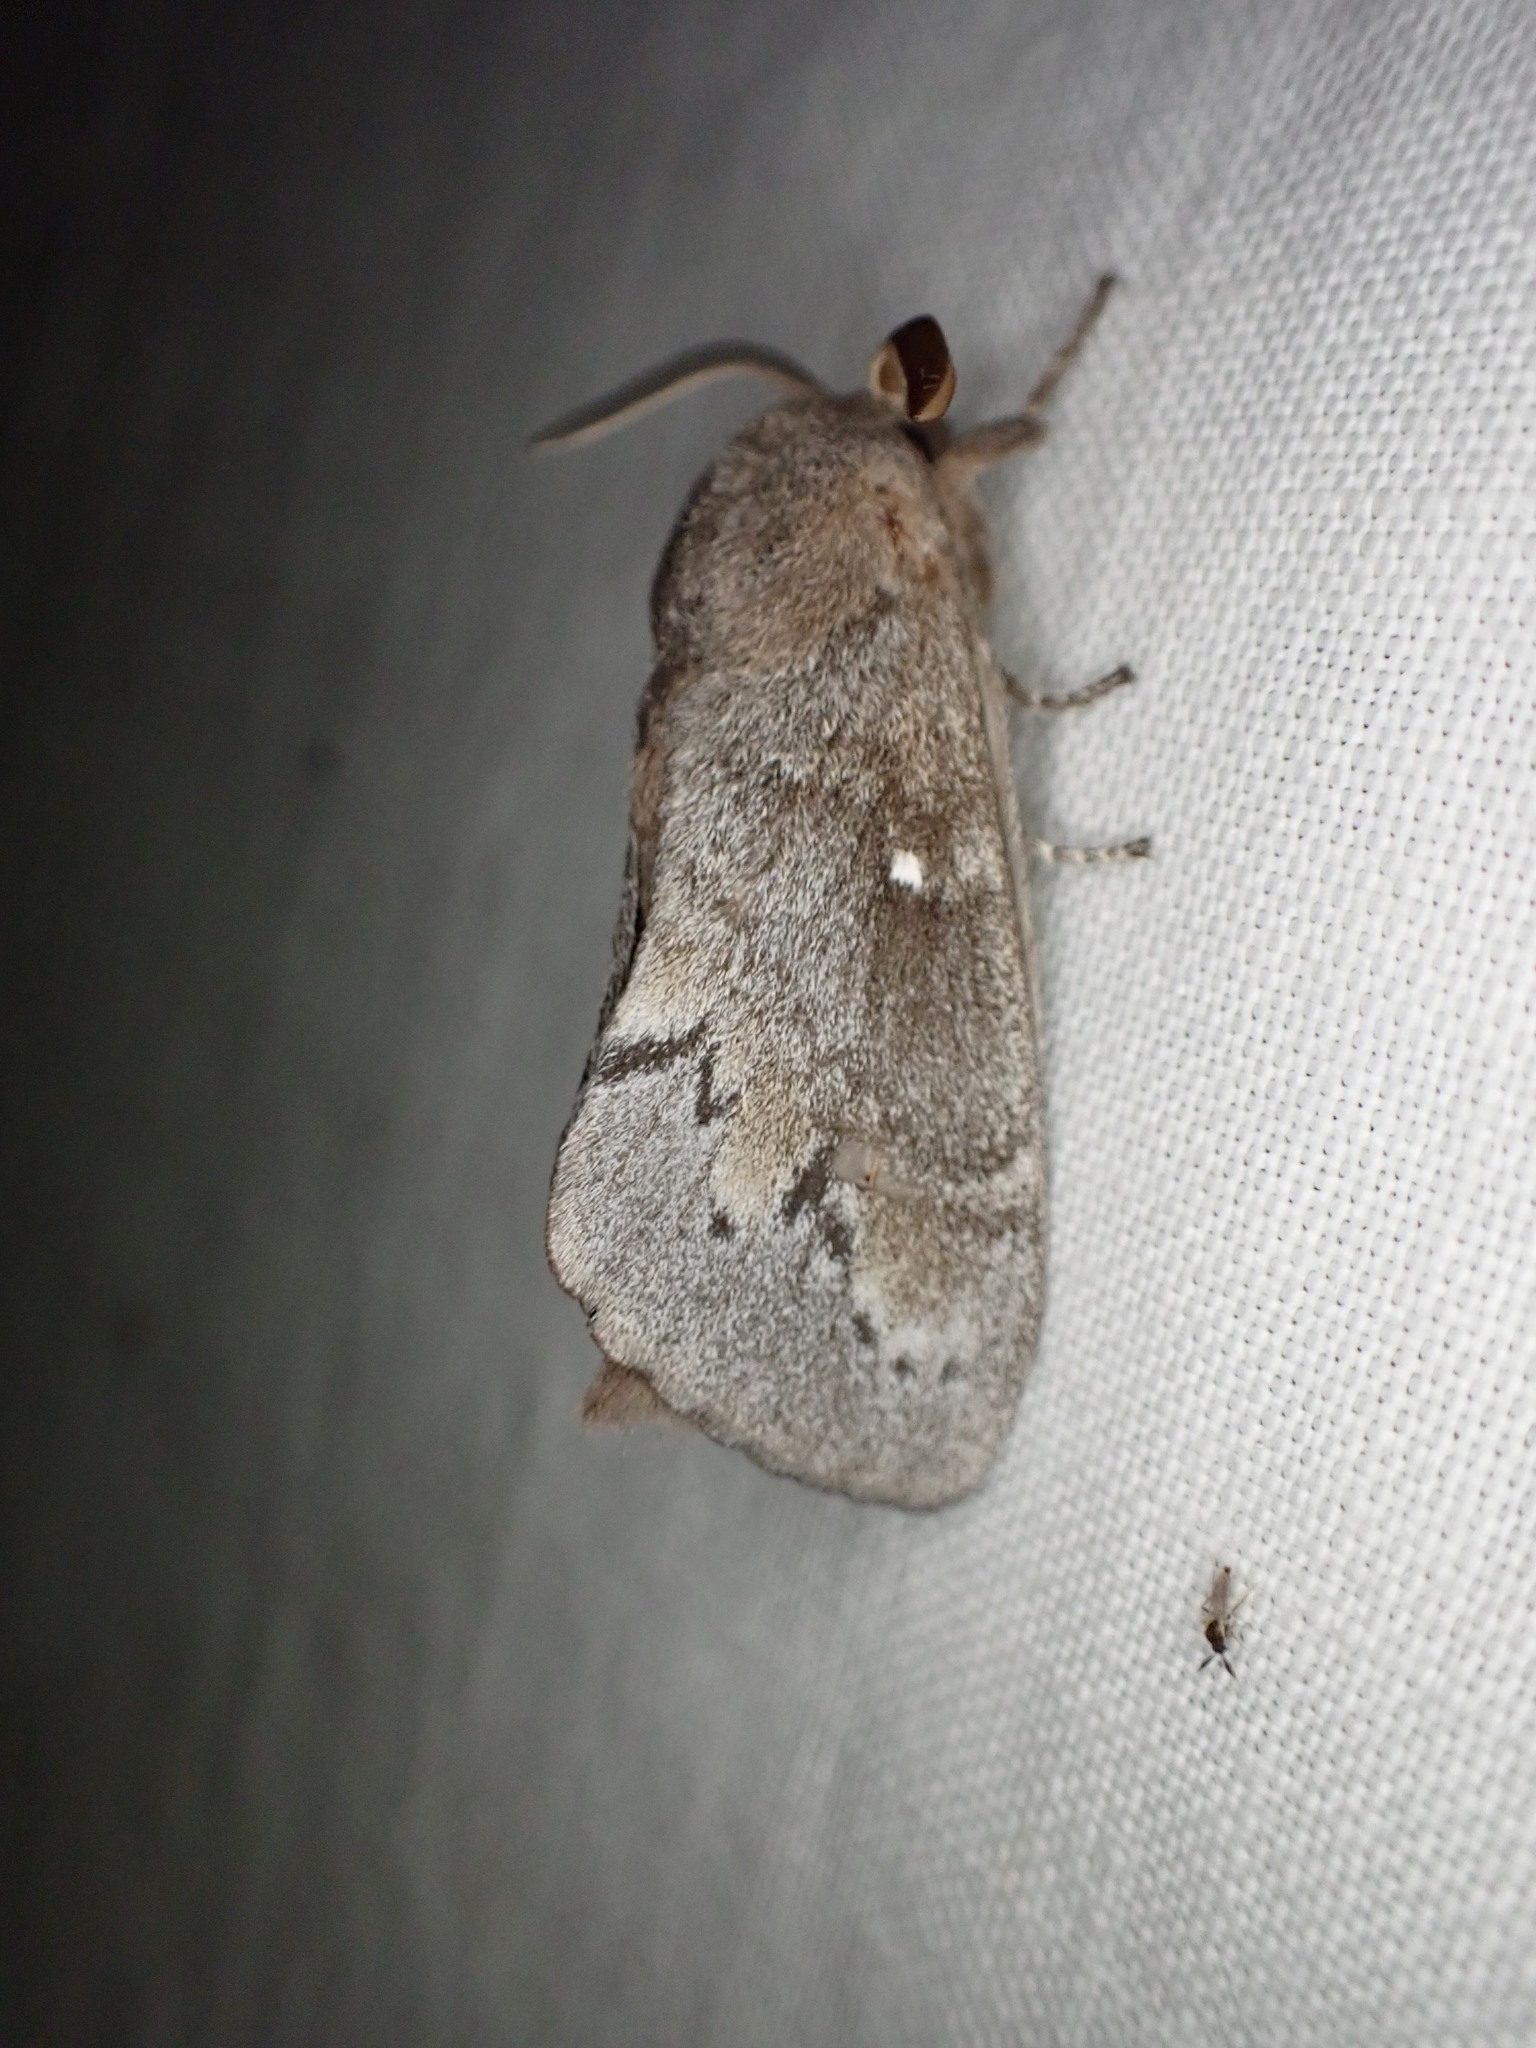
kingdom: Animalia
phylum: Arthropoda
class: Insecta
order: Lepidoptera
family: Lasiocampidae
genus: Dendrolimus
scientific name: Dendrolimus pini
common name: Pine-tree lappet
